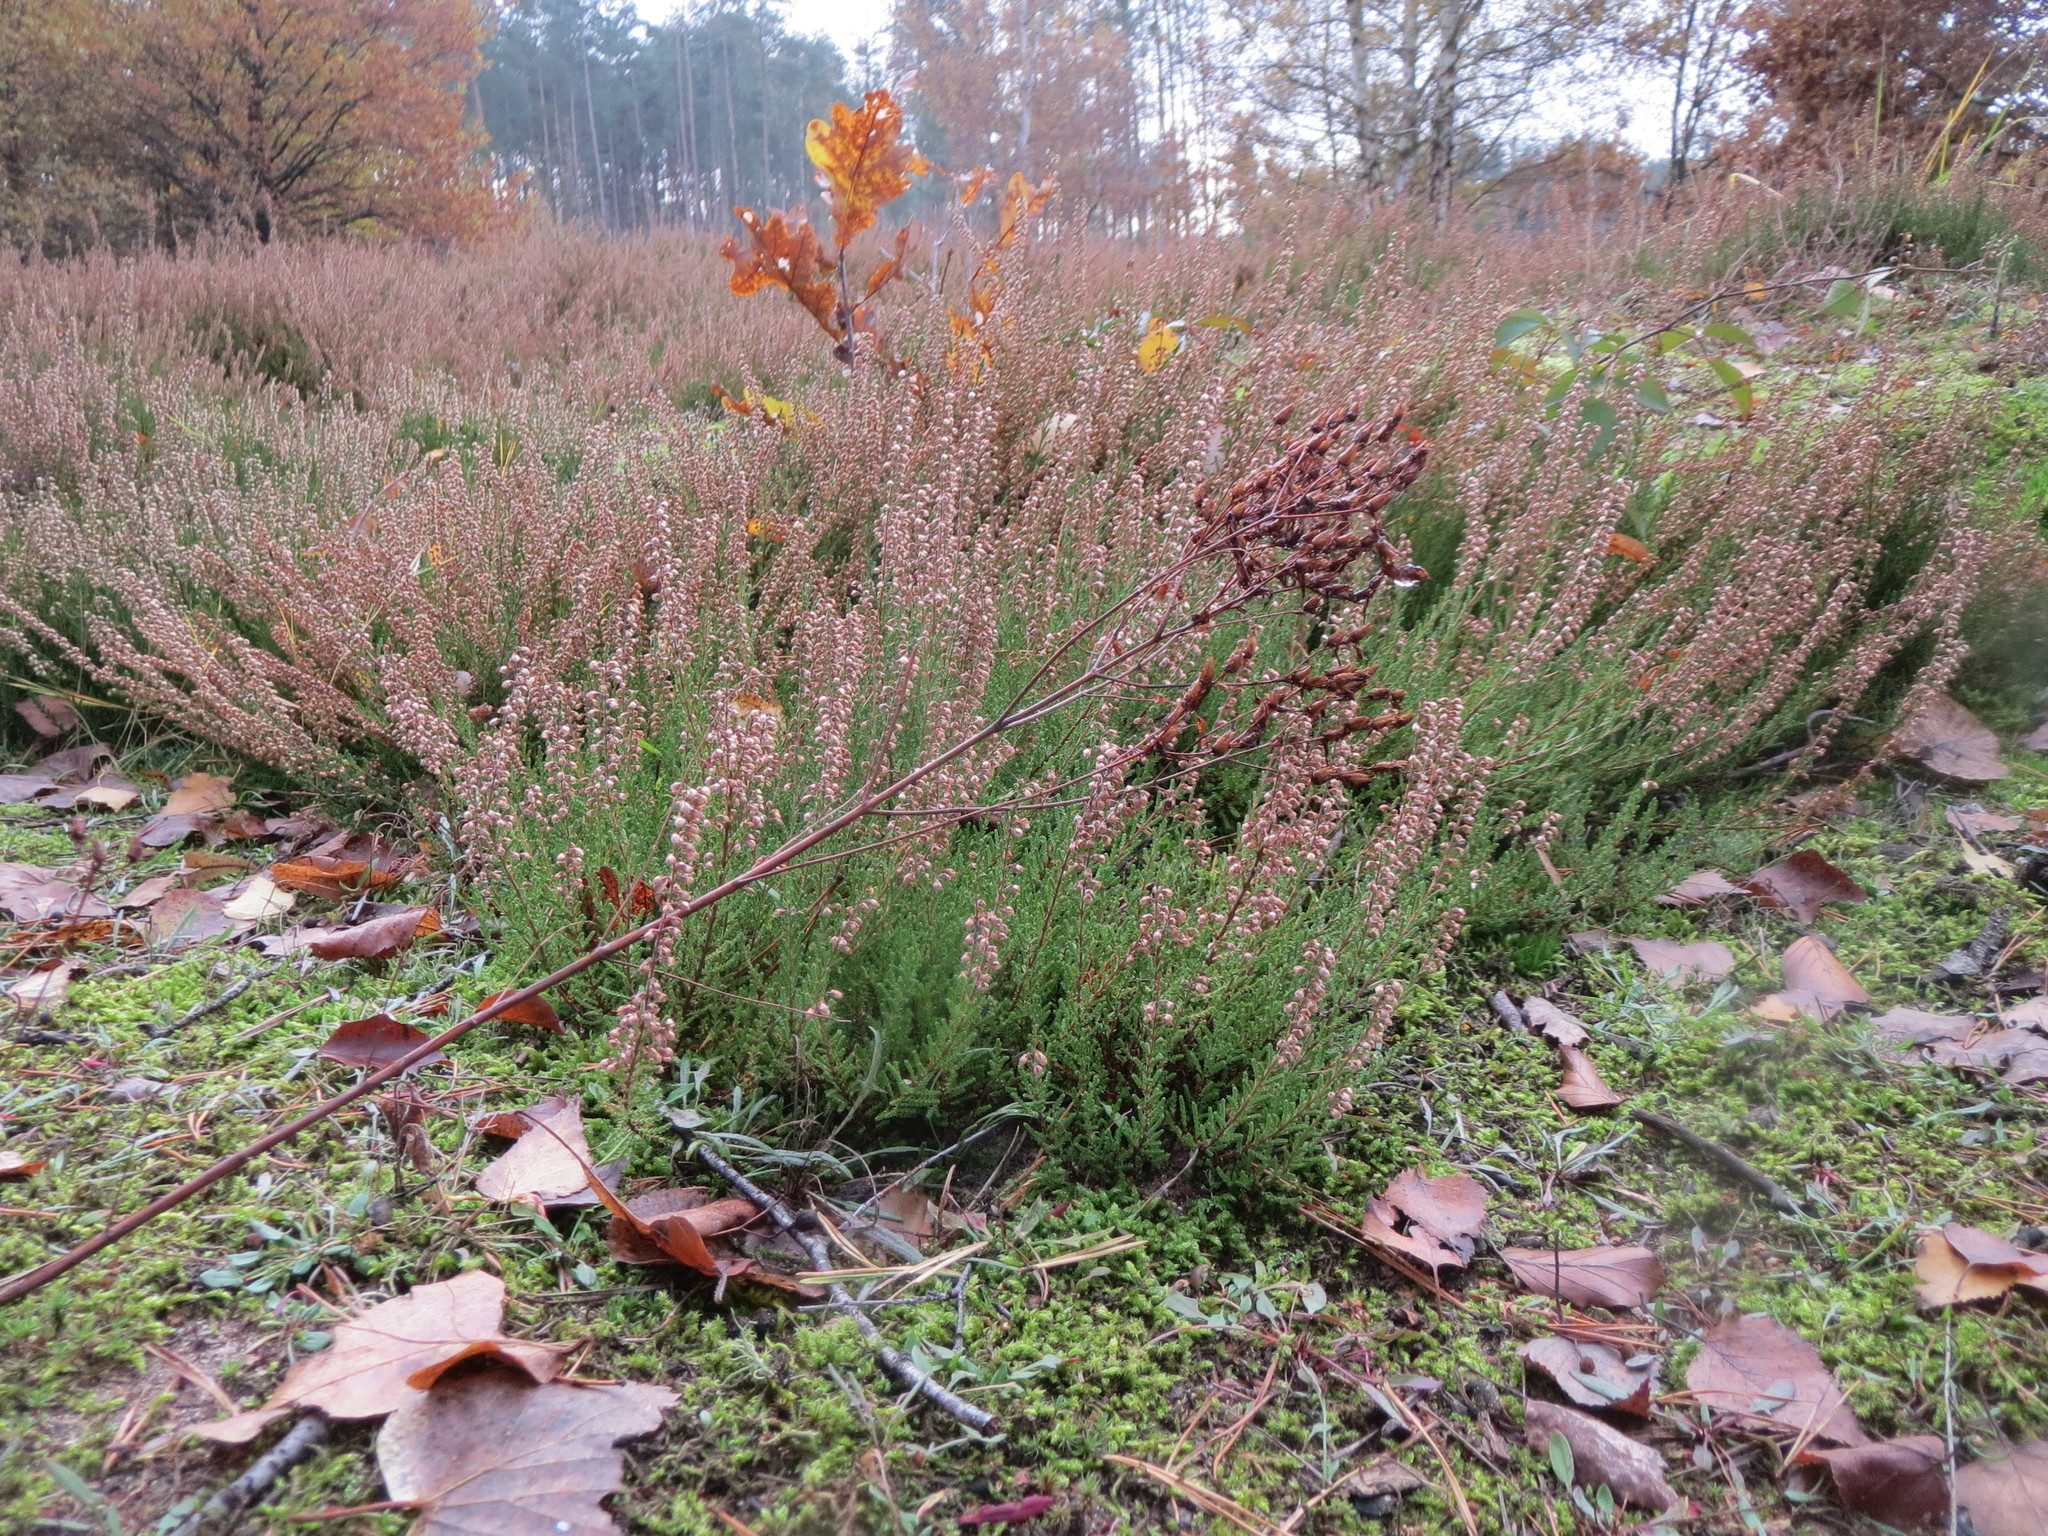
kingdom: Plantae
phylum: Tracheophyta
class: Magnoliopsida
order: Ericales
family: Ericaceae
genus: Calluna
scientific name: Calluna vulgaris
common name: Heather
